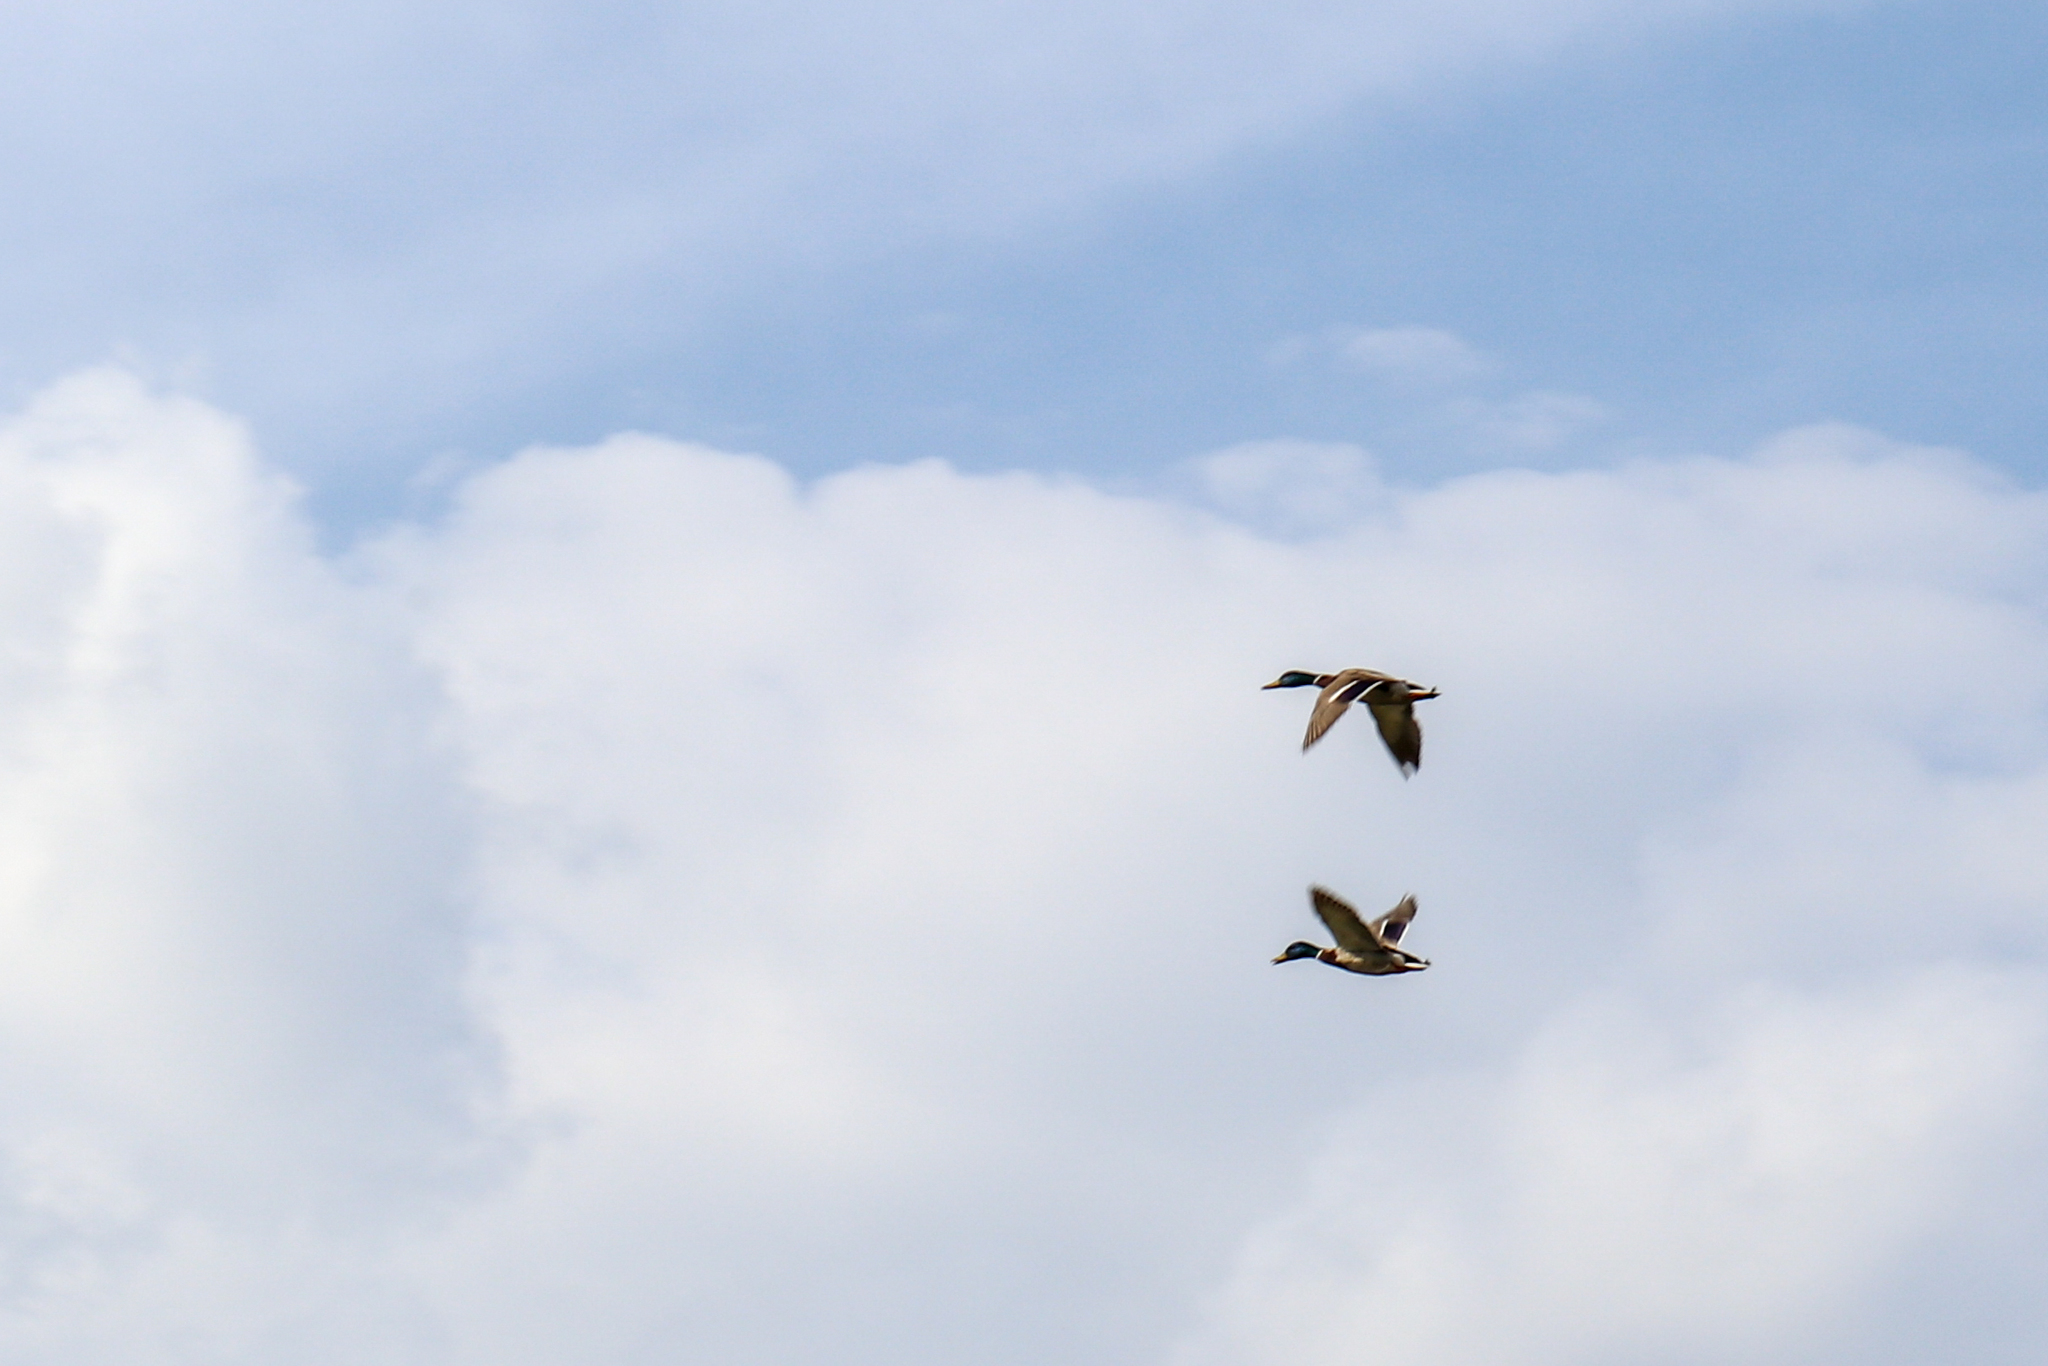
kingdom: Animalia
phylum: Chordata
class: Aves
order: Anseriformes
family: Anatidae
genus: Anas
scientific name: Anas platyrhynchos
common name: Mallard
